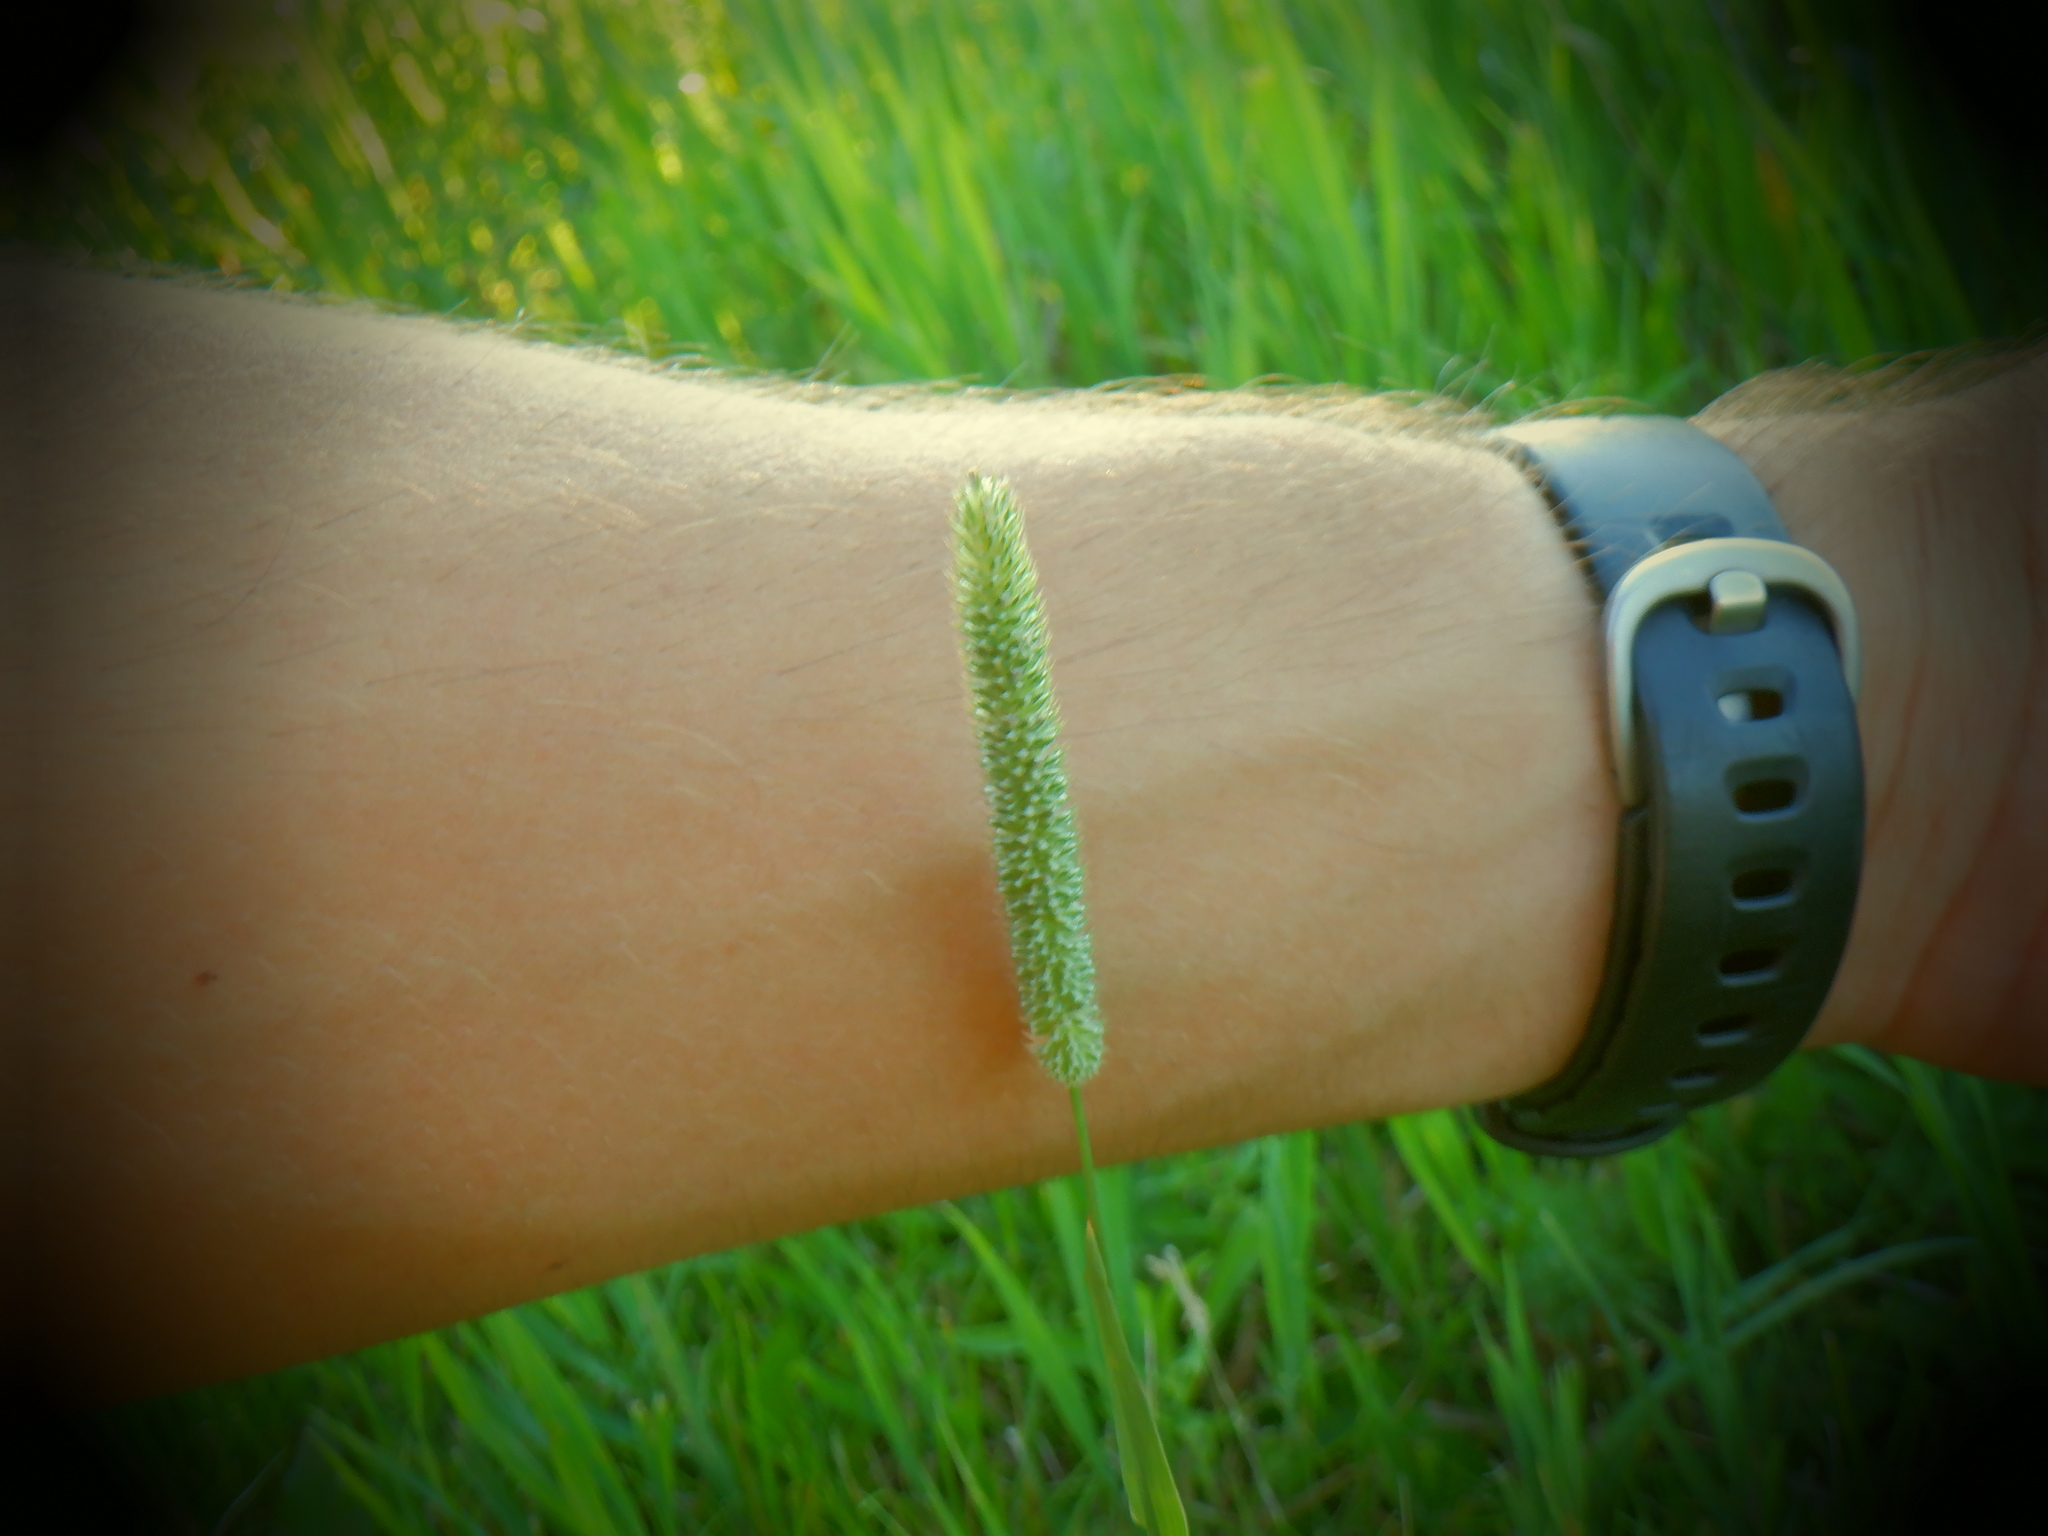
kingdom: Plantae
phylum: Tracheophyta
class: Liliopsida
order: Poales
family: Poaceae
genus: Phleum
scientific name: Phleum pratense
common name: Timothy grass
